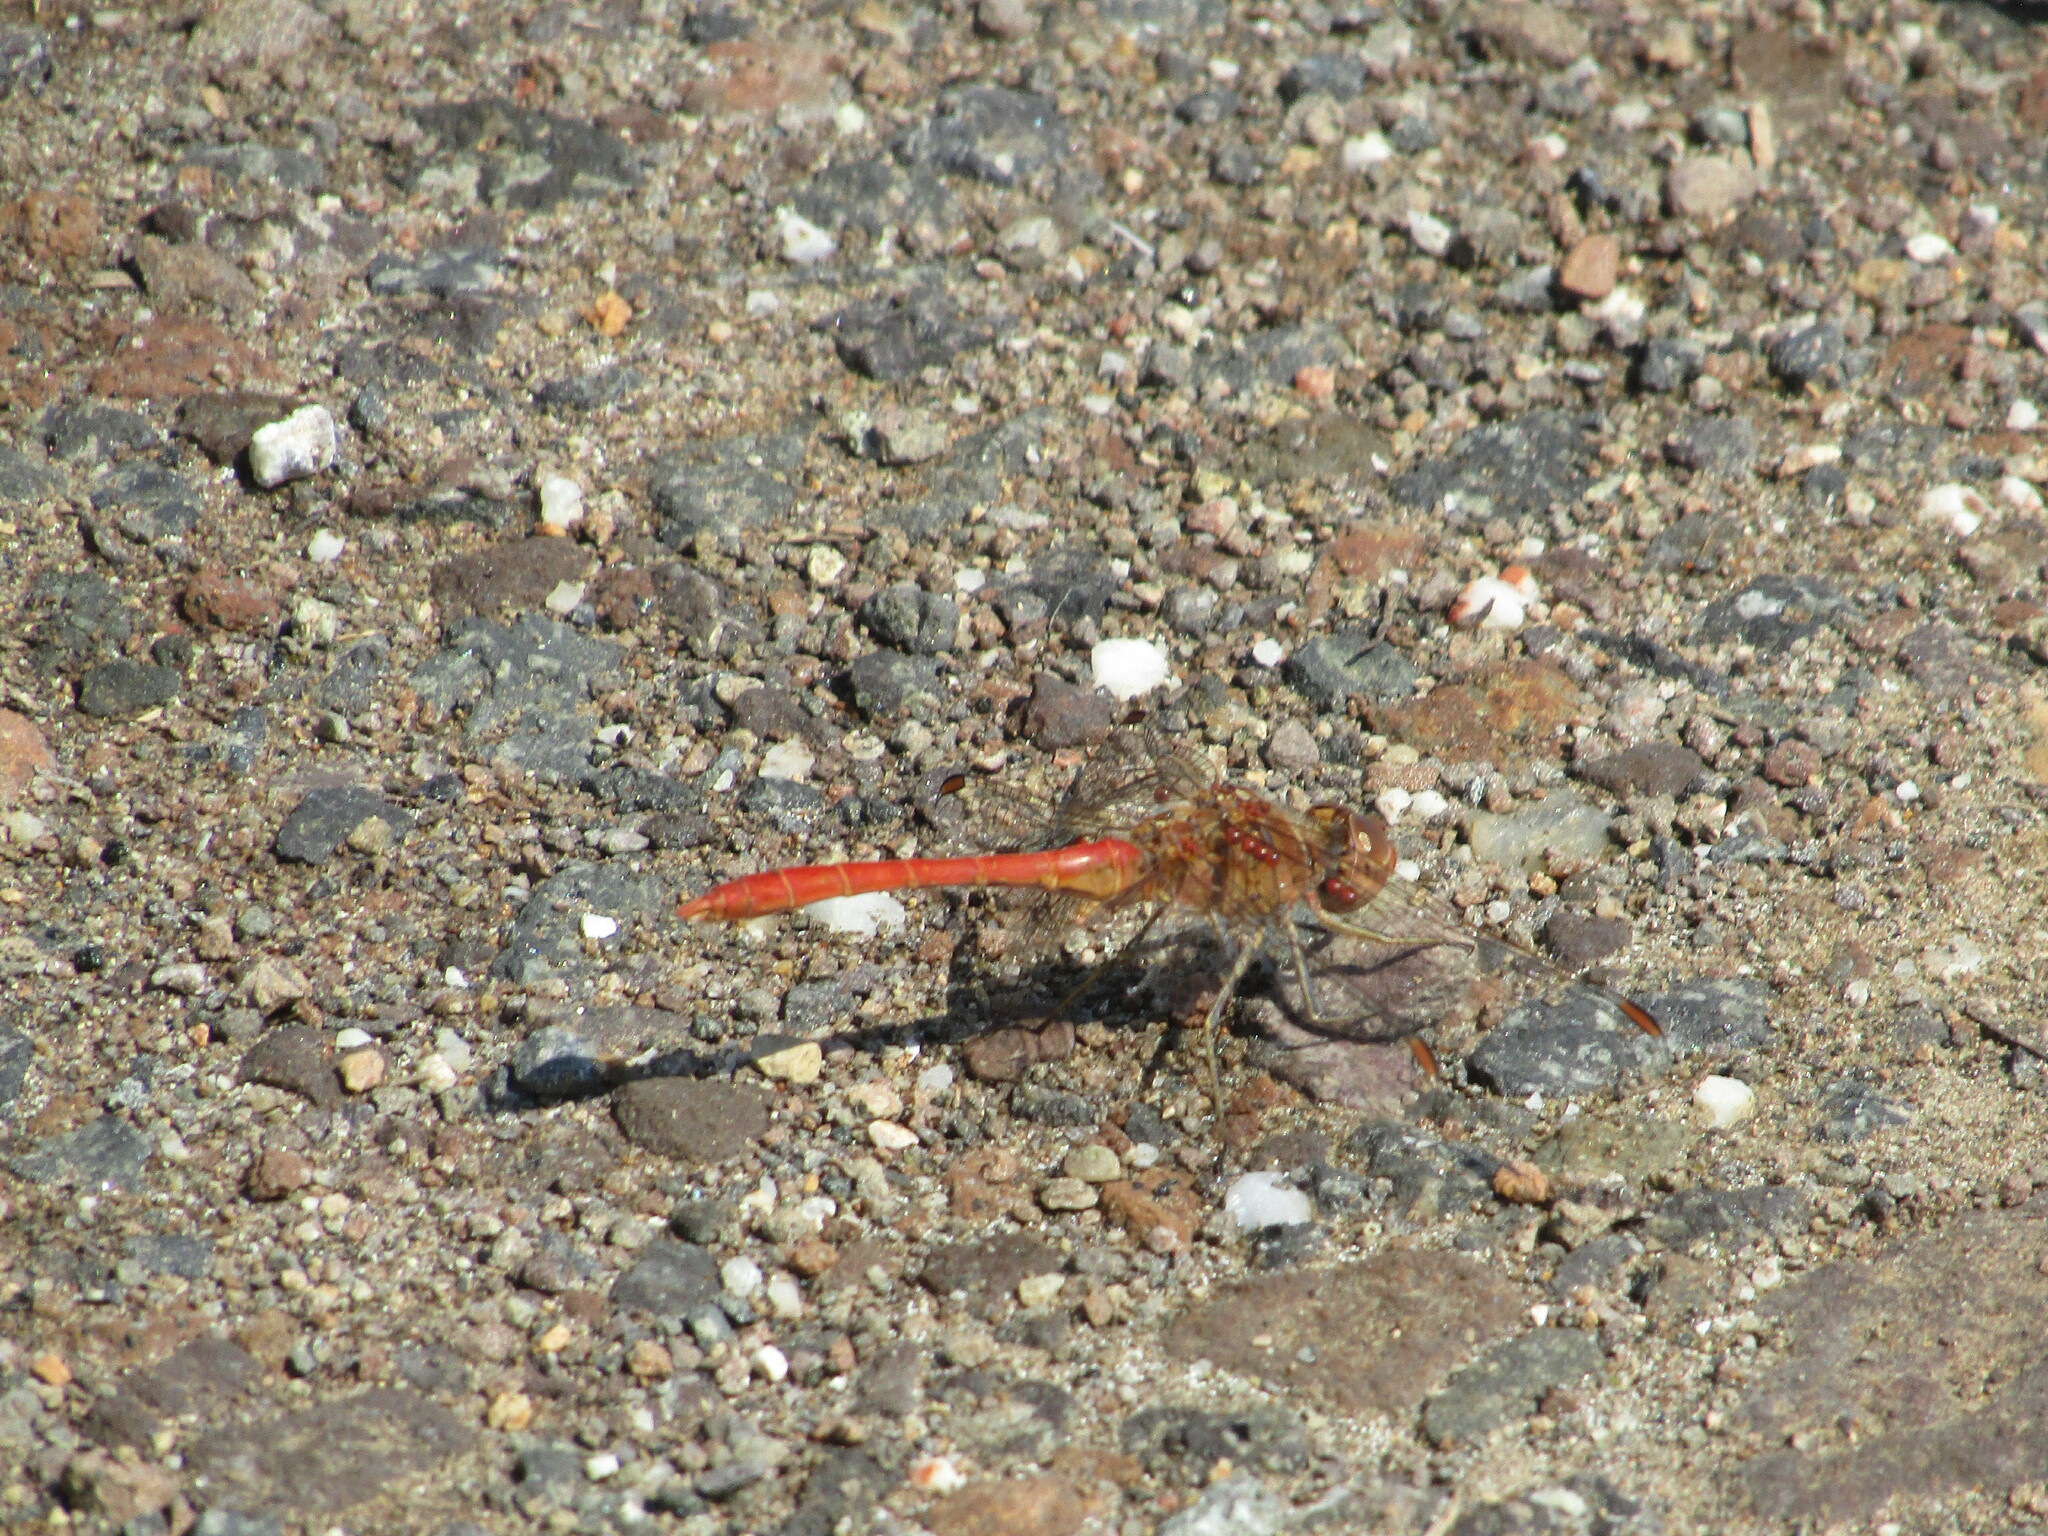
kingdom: Animalia
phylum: Arthropoda
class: Insecta
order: Odonata
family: Libellulidae
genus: Sympetrum
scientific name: Sympetrum meridionale
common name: Southern darter
